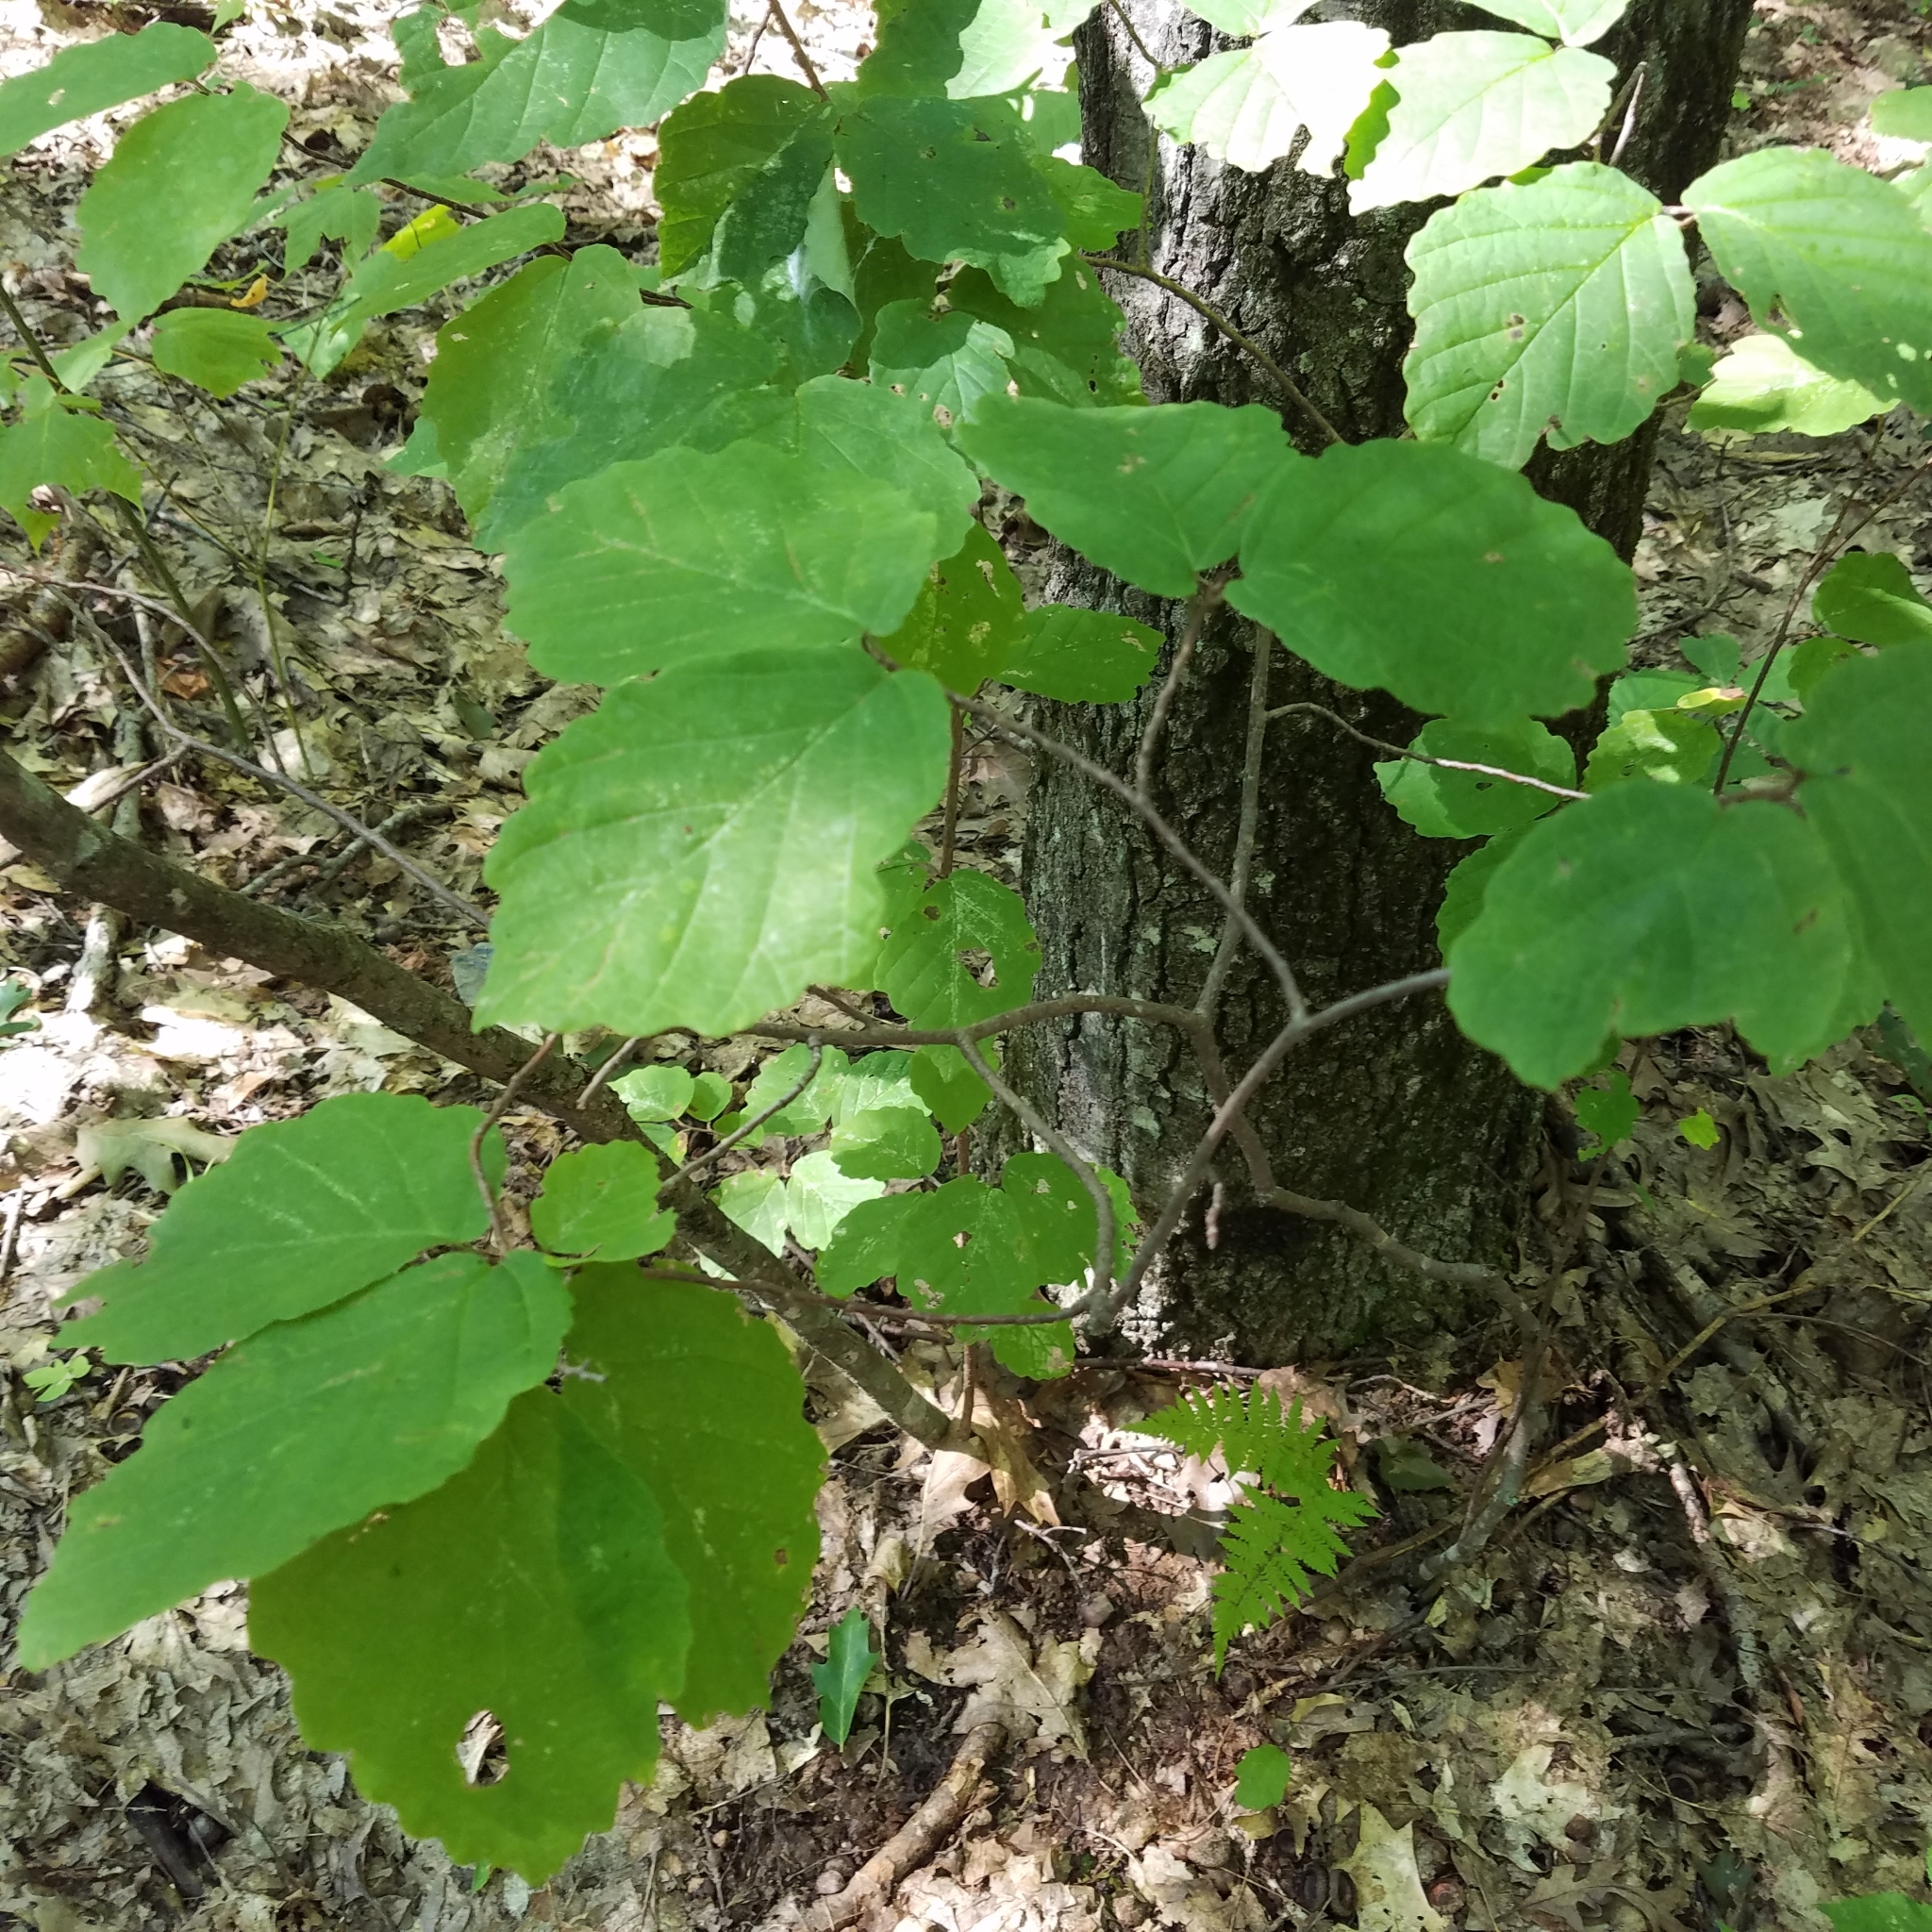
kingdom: Plantae
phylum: Tracheophyta
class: Magnoliopsida
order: Saxifragales
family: Hamamelidaceae
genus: Hamamelis
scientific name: Hamamelis virginiana
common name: Witch-hazel
